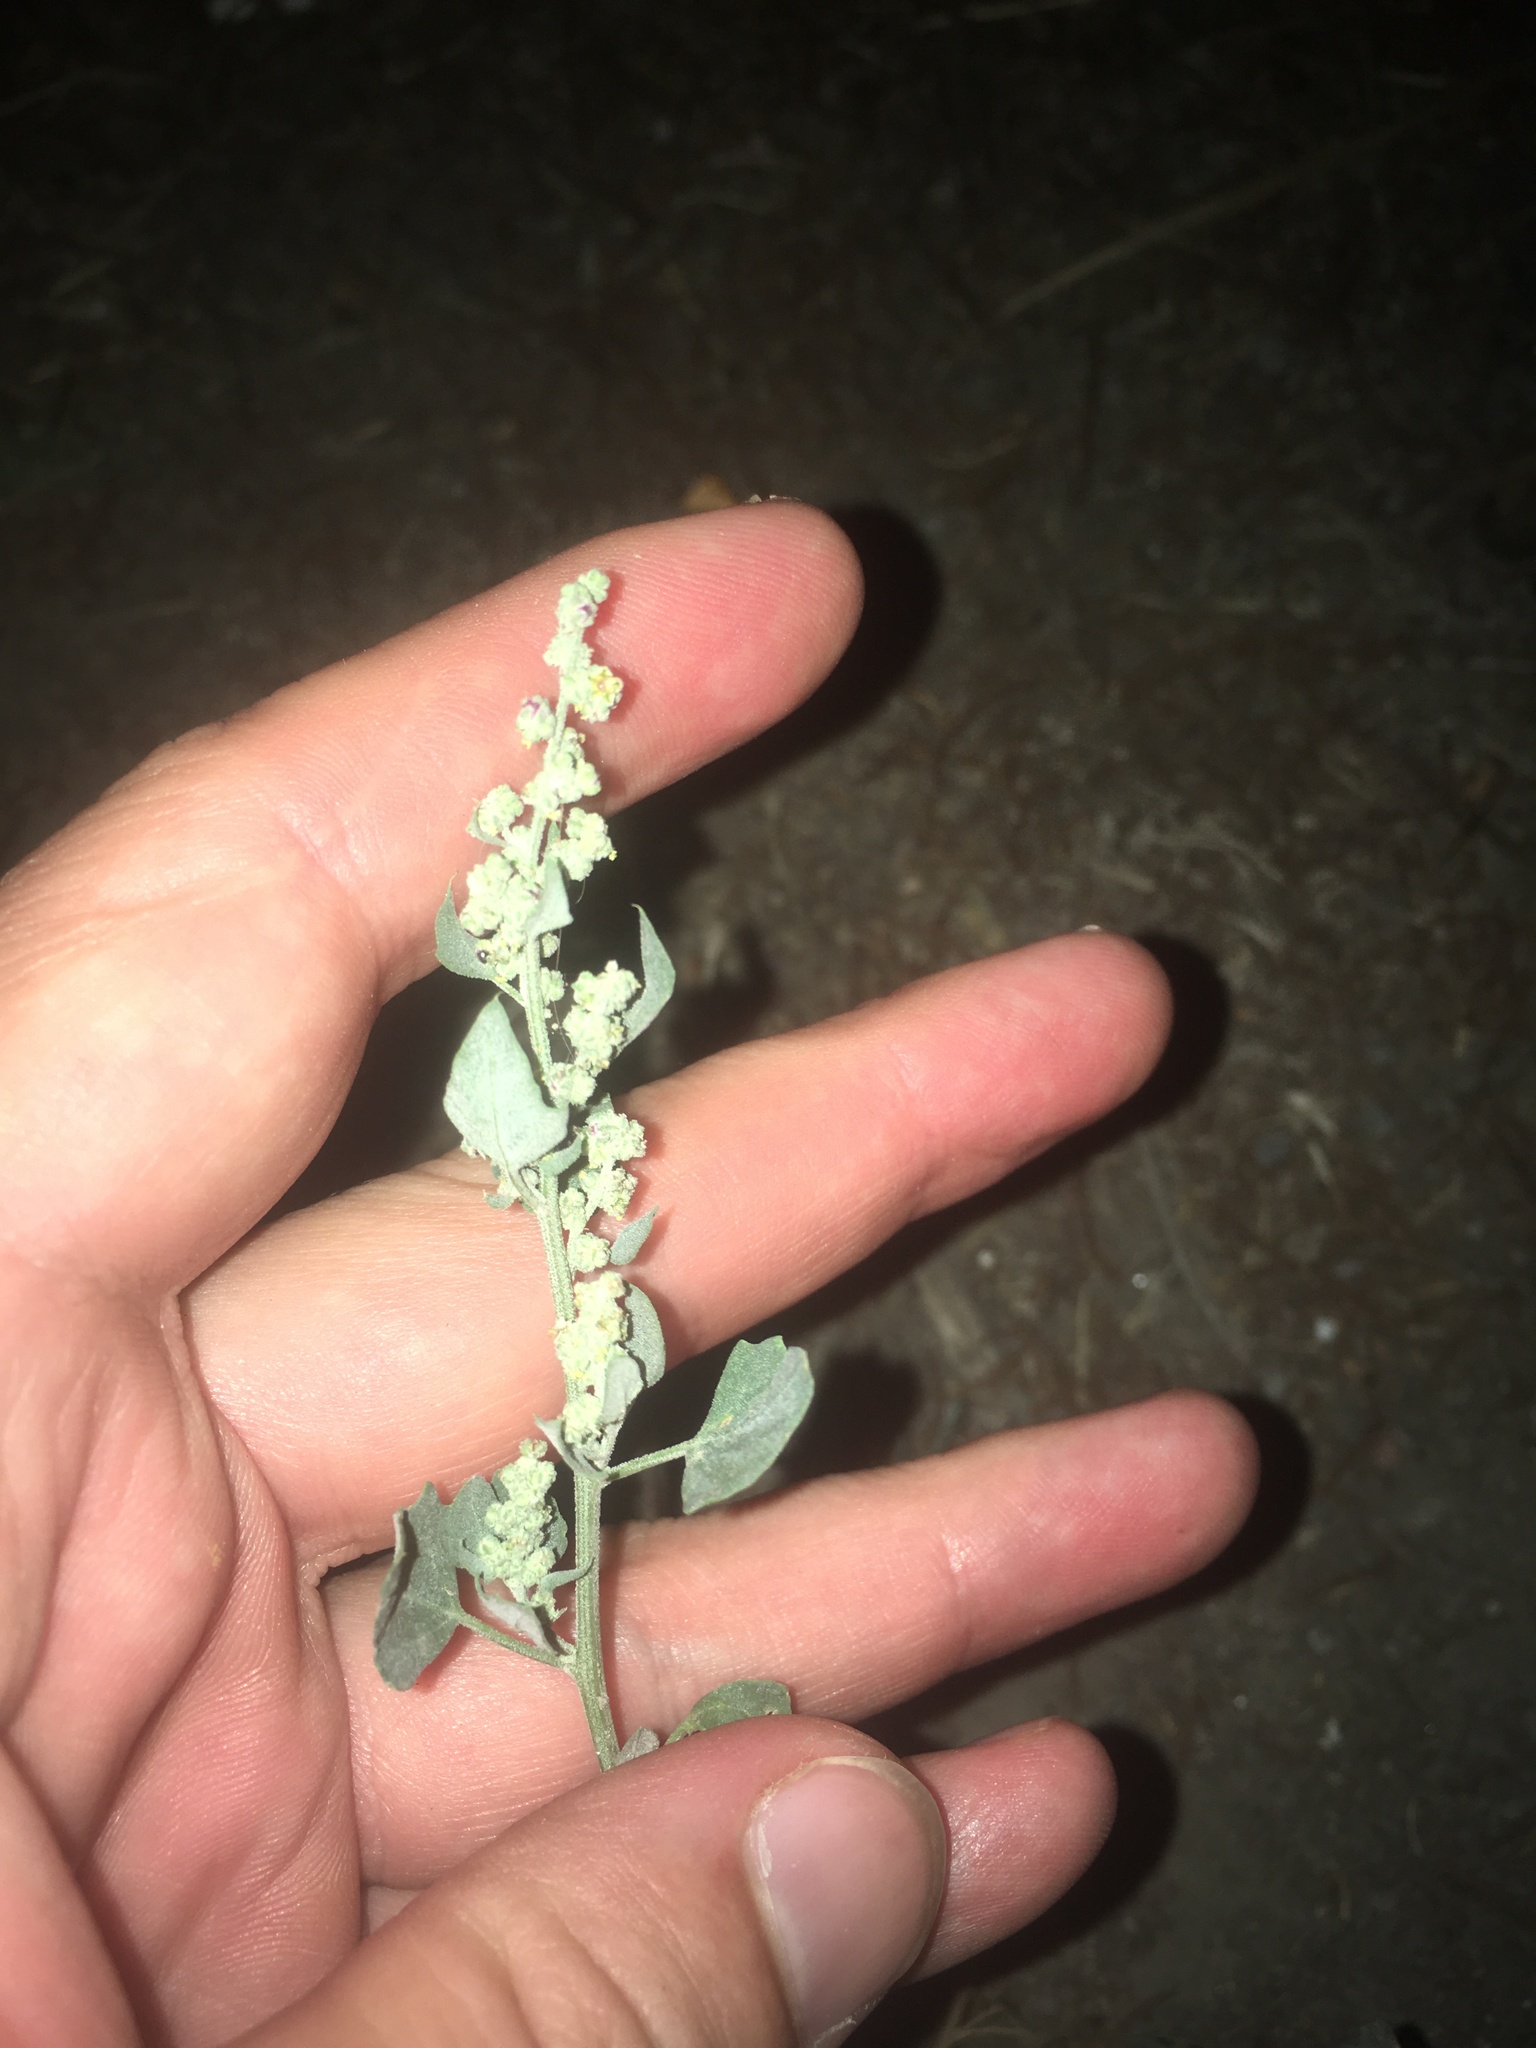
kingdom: Plantae
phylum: Tracheophyta
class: Magnoliopsida
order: Caryophyllales
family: Amaranthaceae
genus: Chenopodium
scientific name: Chenopodium album
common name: Fat-hen
